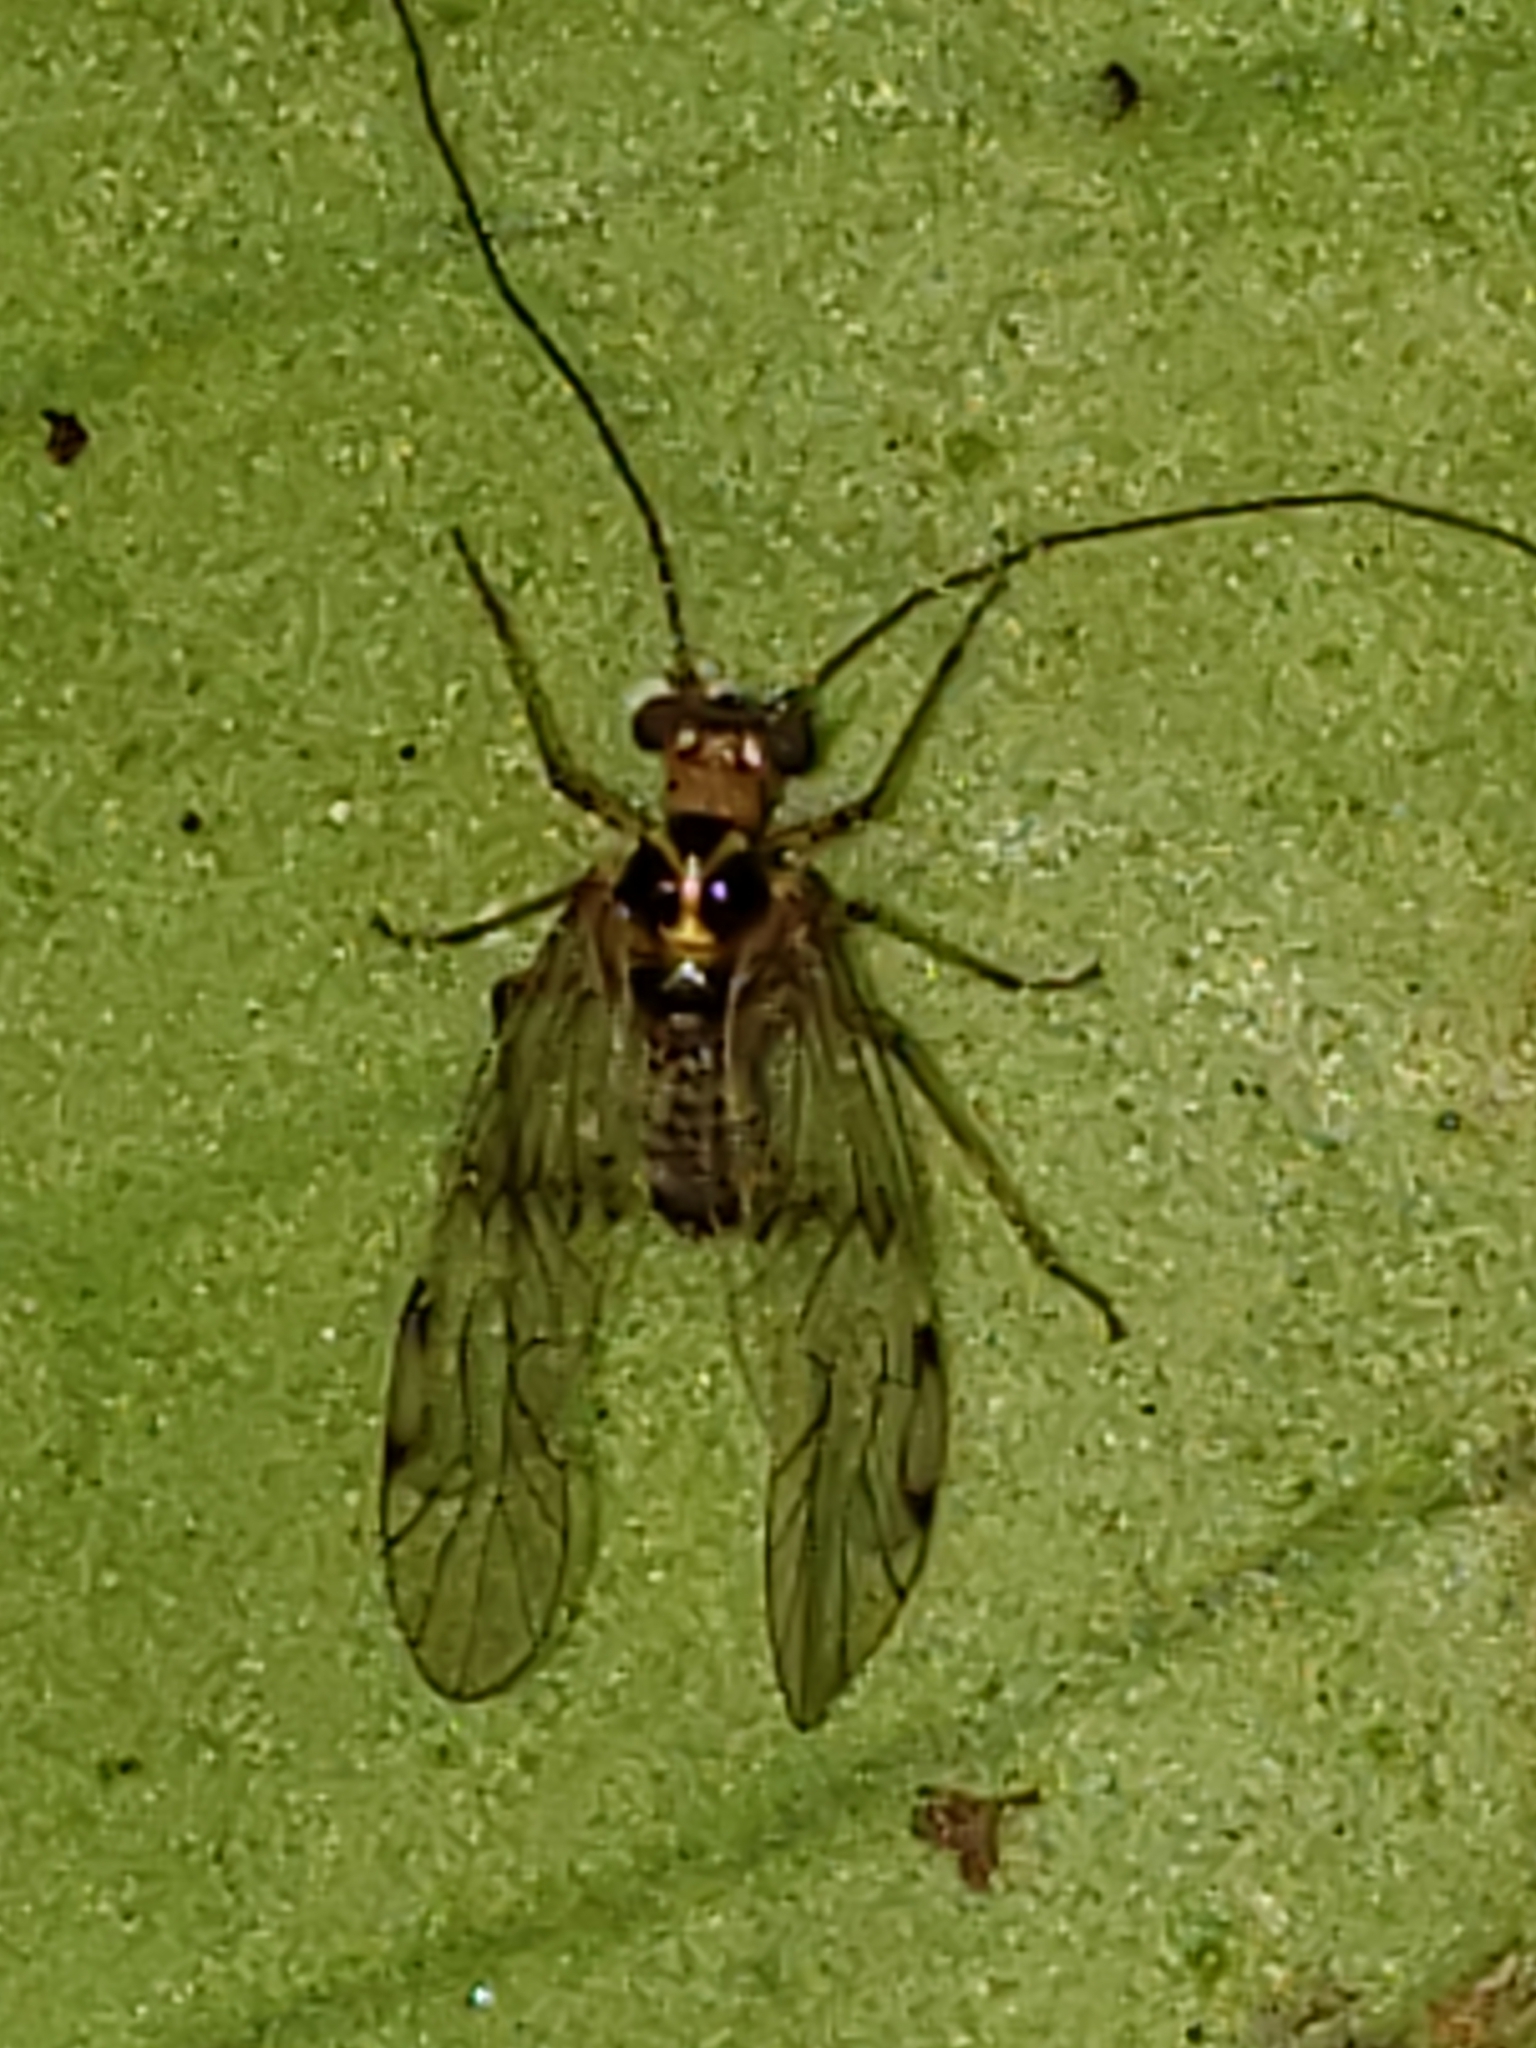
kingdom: Animalia
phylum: Arthropoda
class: Insecta
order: Psocodea
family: Dasydemellidae
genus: Teliapsocus
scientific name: Teliapsocus conterminus
